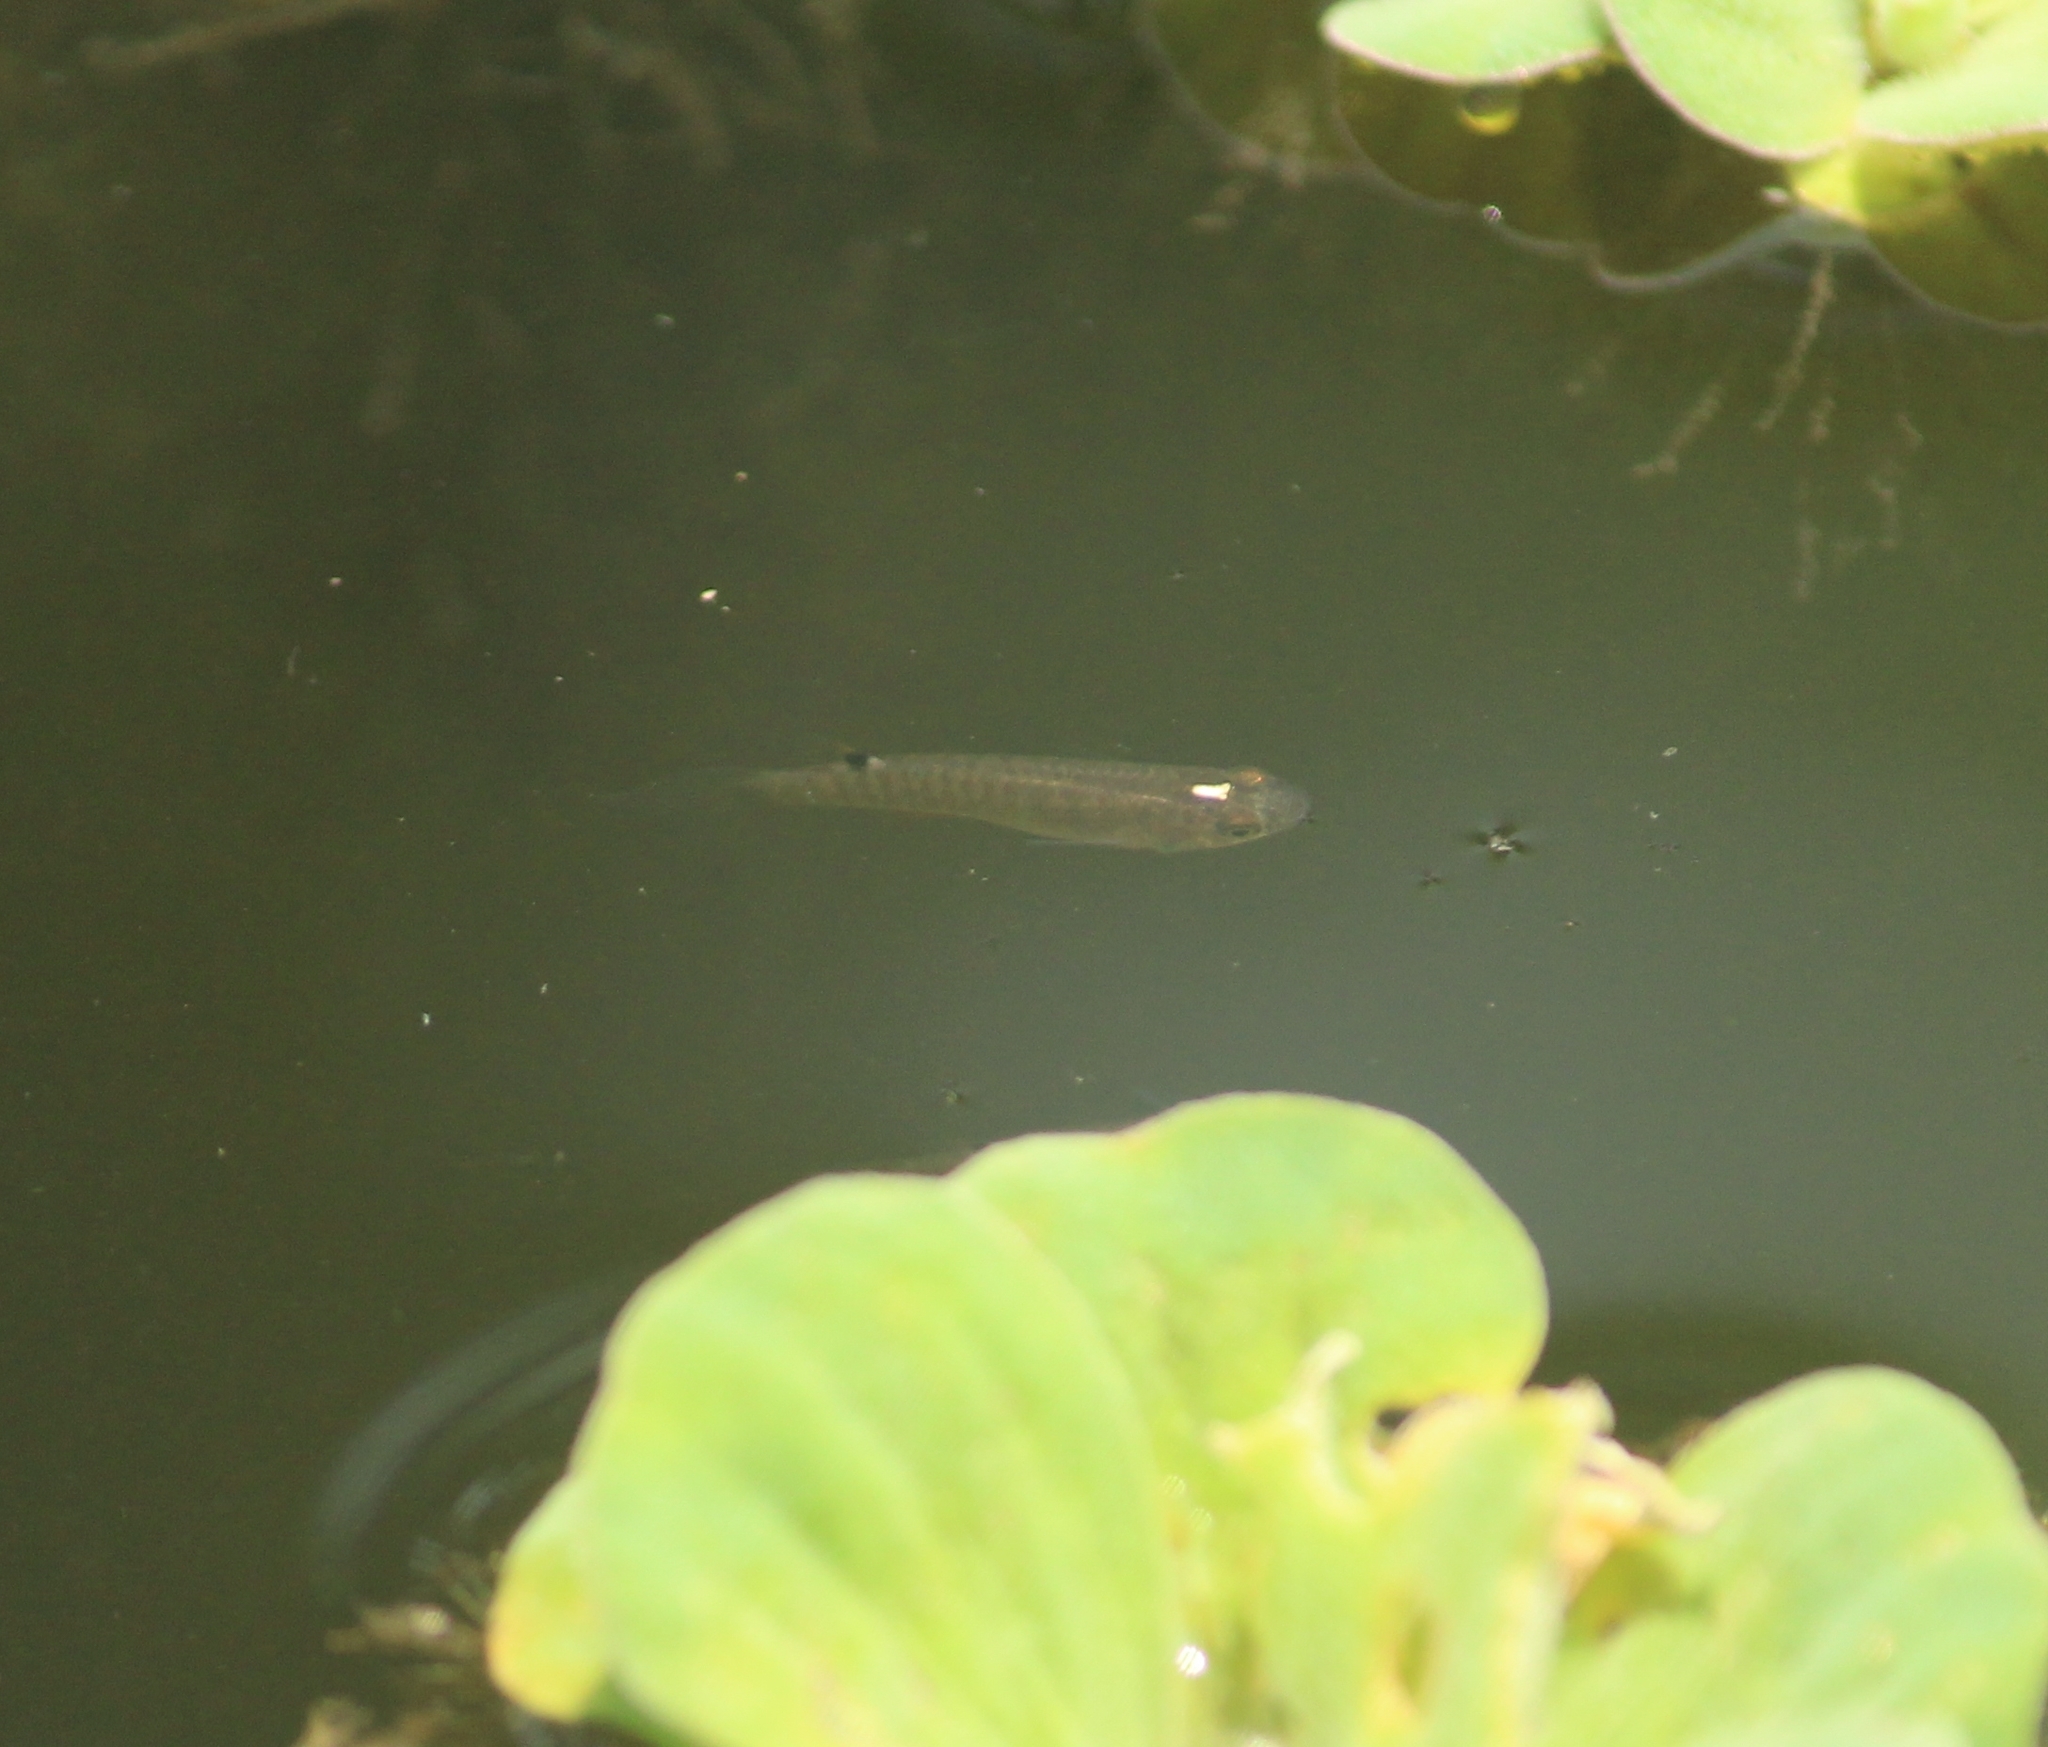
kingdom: Animalia
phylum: Chordata
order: Cyprinodontiformes
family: Aplocheilidae
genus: Aplocheilus
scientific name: Aplocheilus lineatus
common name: Striped panchax
